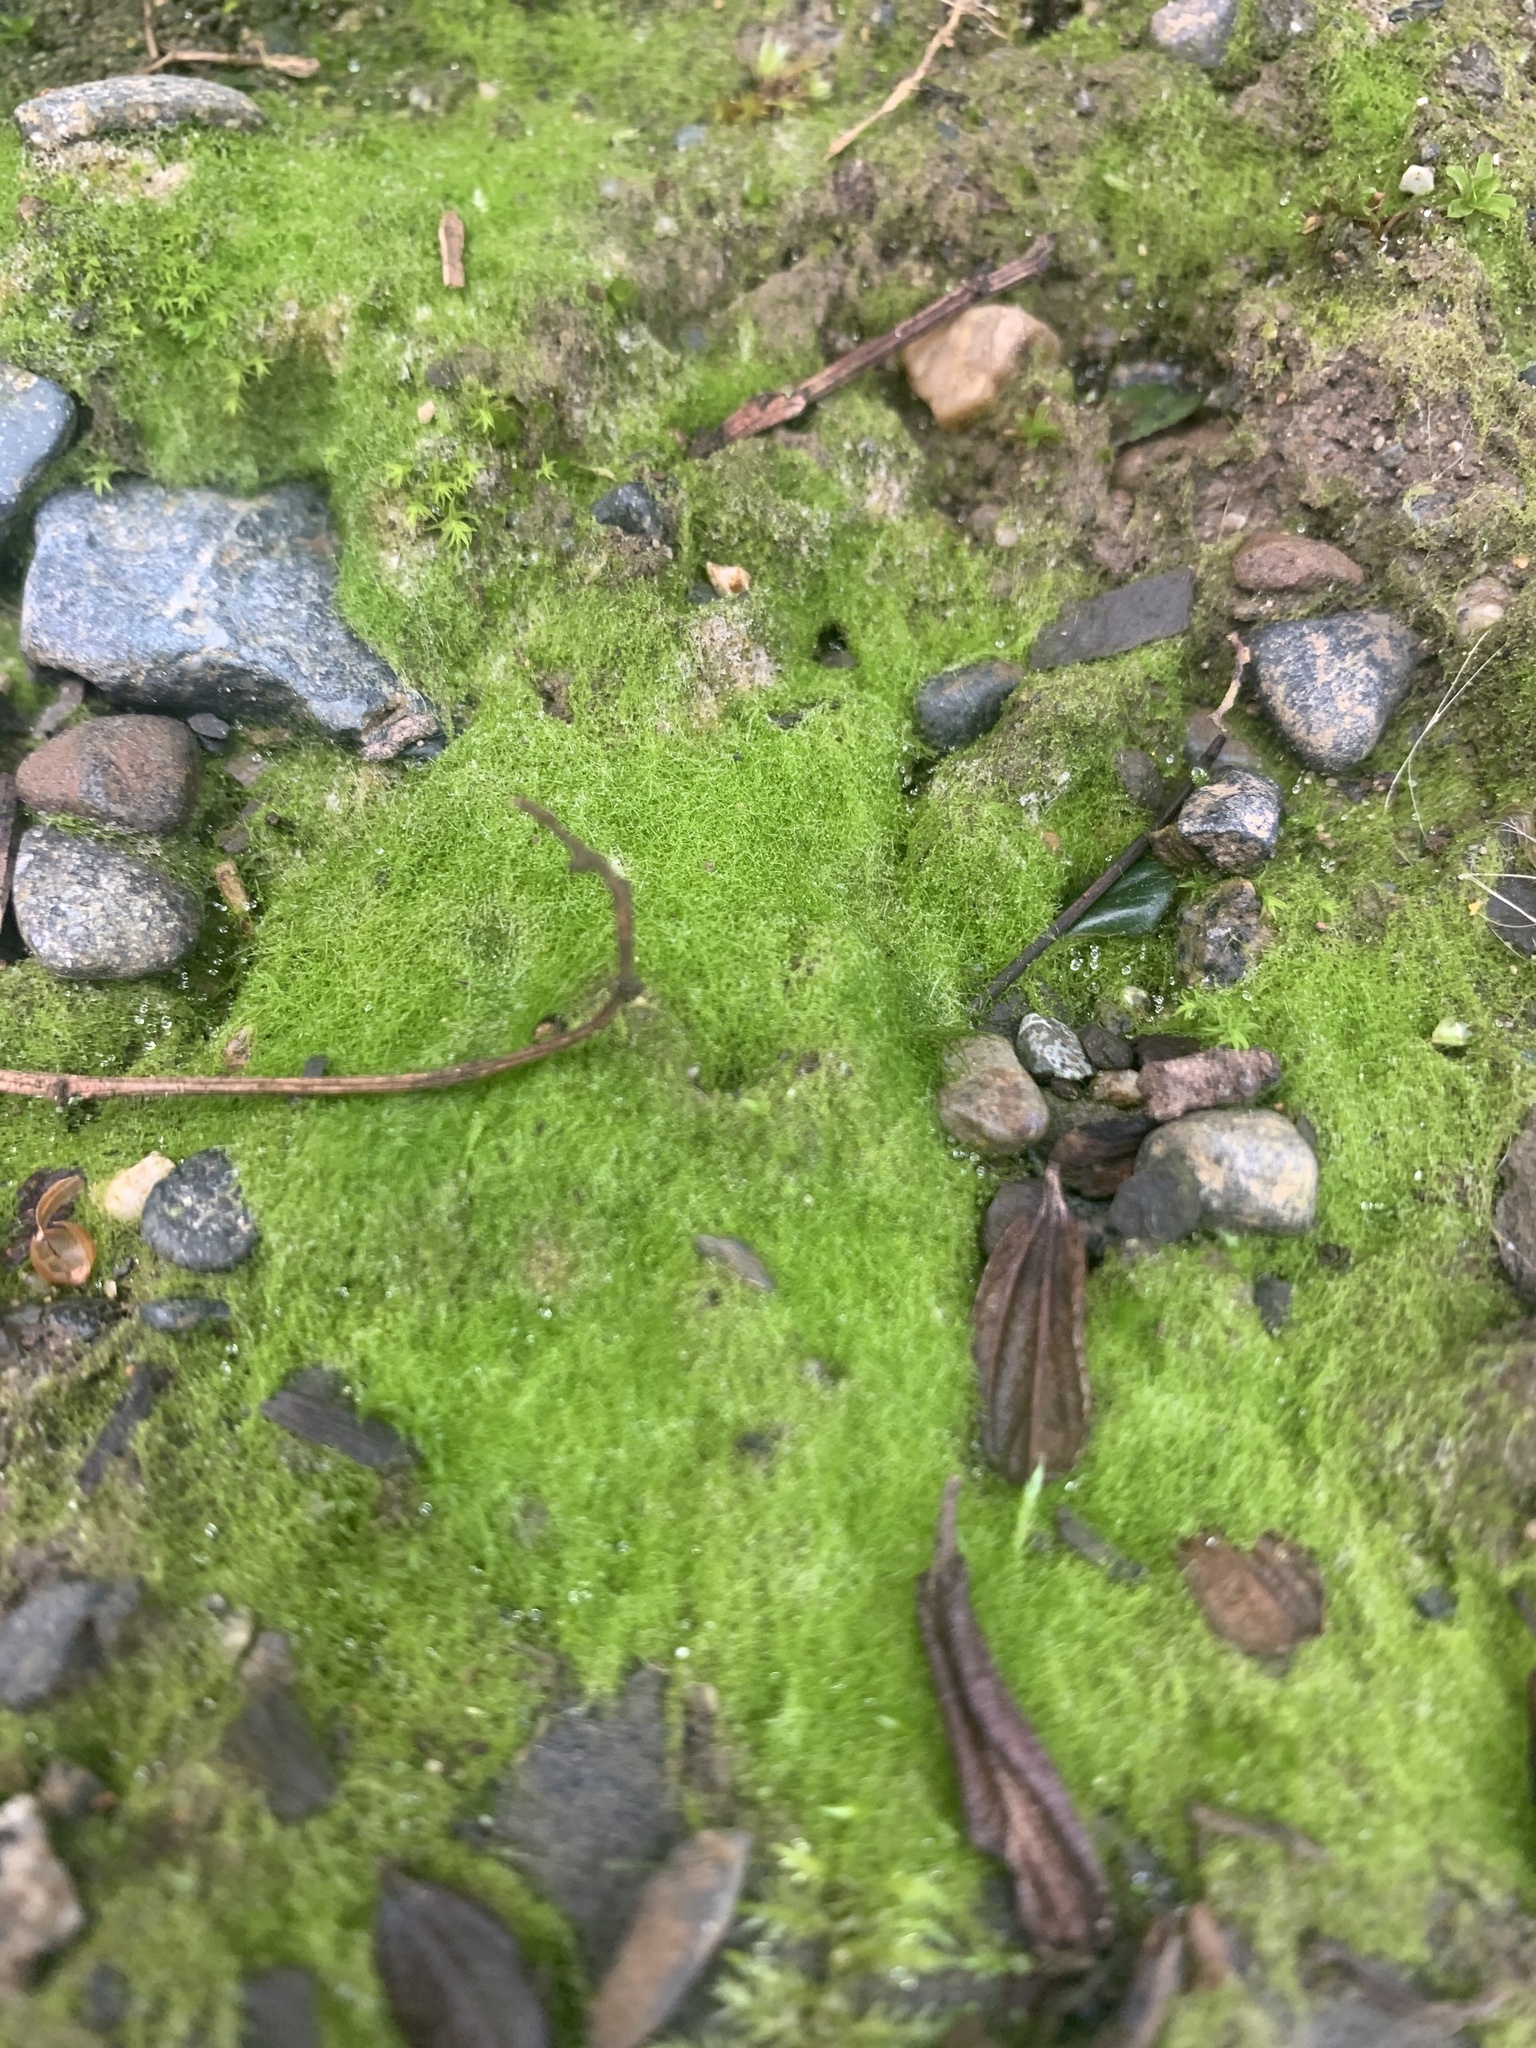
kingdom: Chromista
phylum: Ochrophyta
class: Xanthophyceae
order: Vaucheriales
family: Vaucheriaceae
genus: Vaucheria
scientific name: Vaucheria
